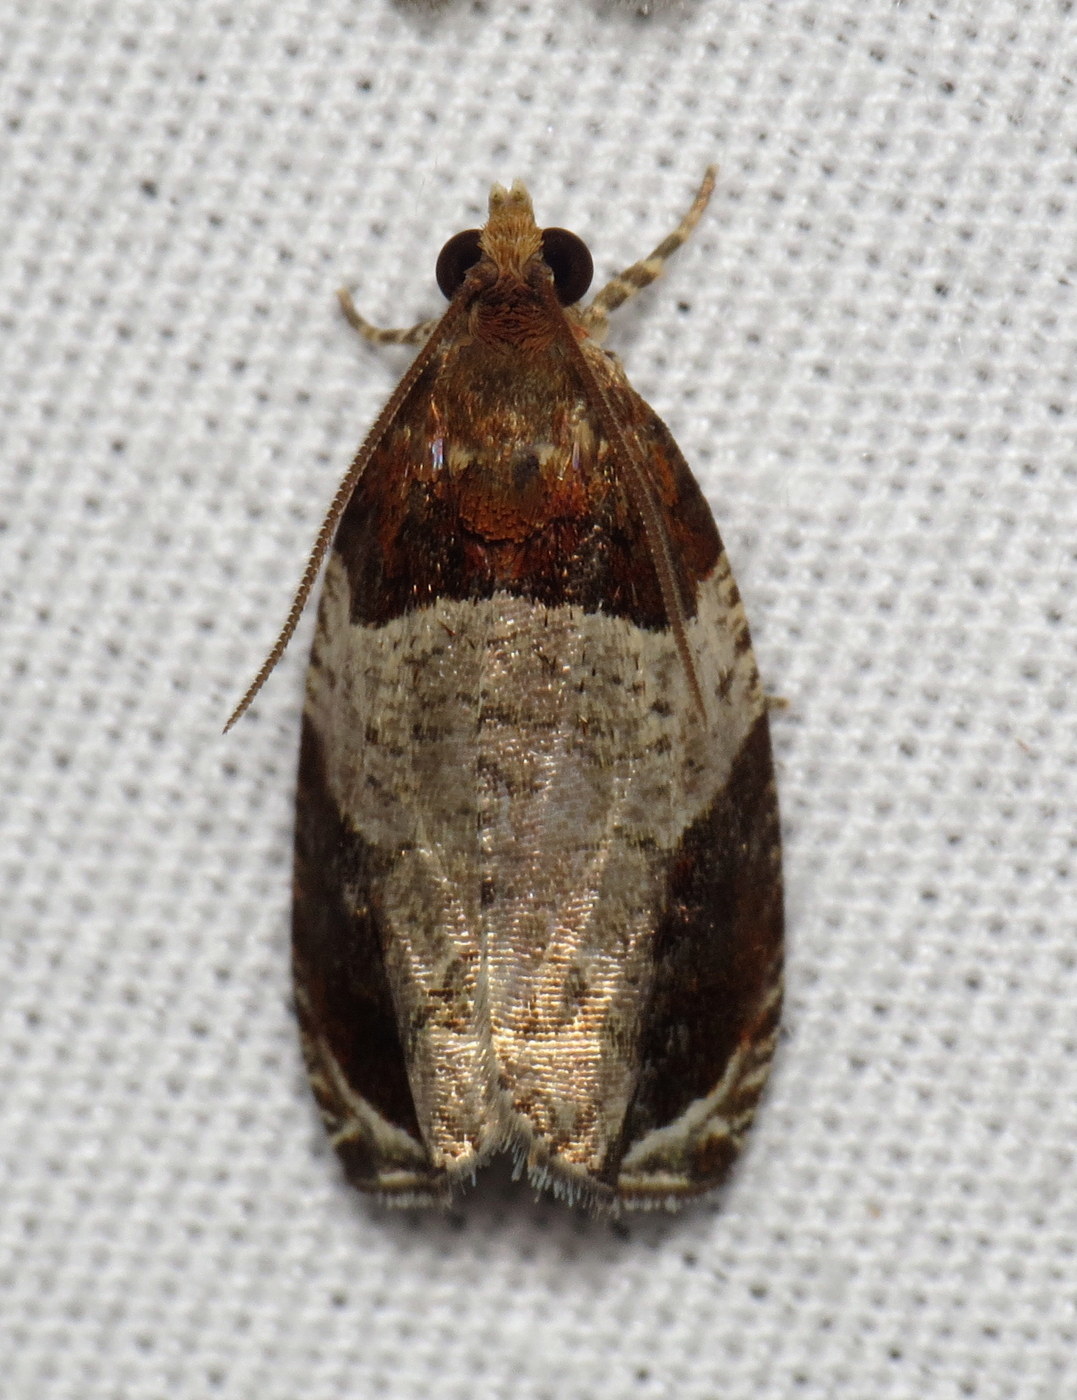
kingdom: Animalia
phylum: Arthropoda
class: Insecta
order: Lepidoptera
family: Tortricidae
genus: Olethreutes
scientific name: Olethreutes ferriferana
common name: Hydrangea leaftier moth
